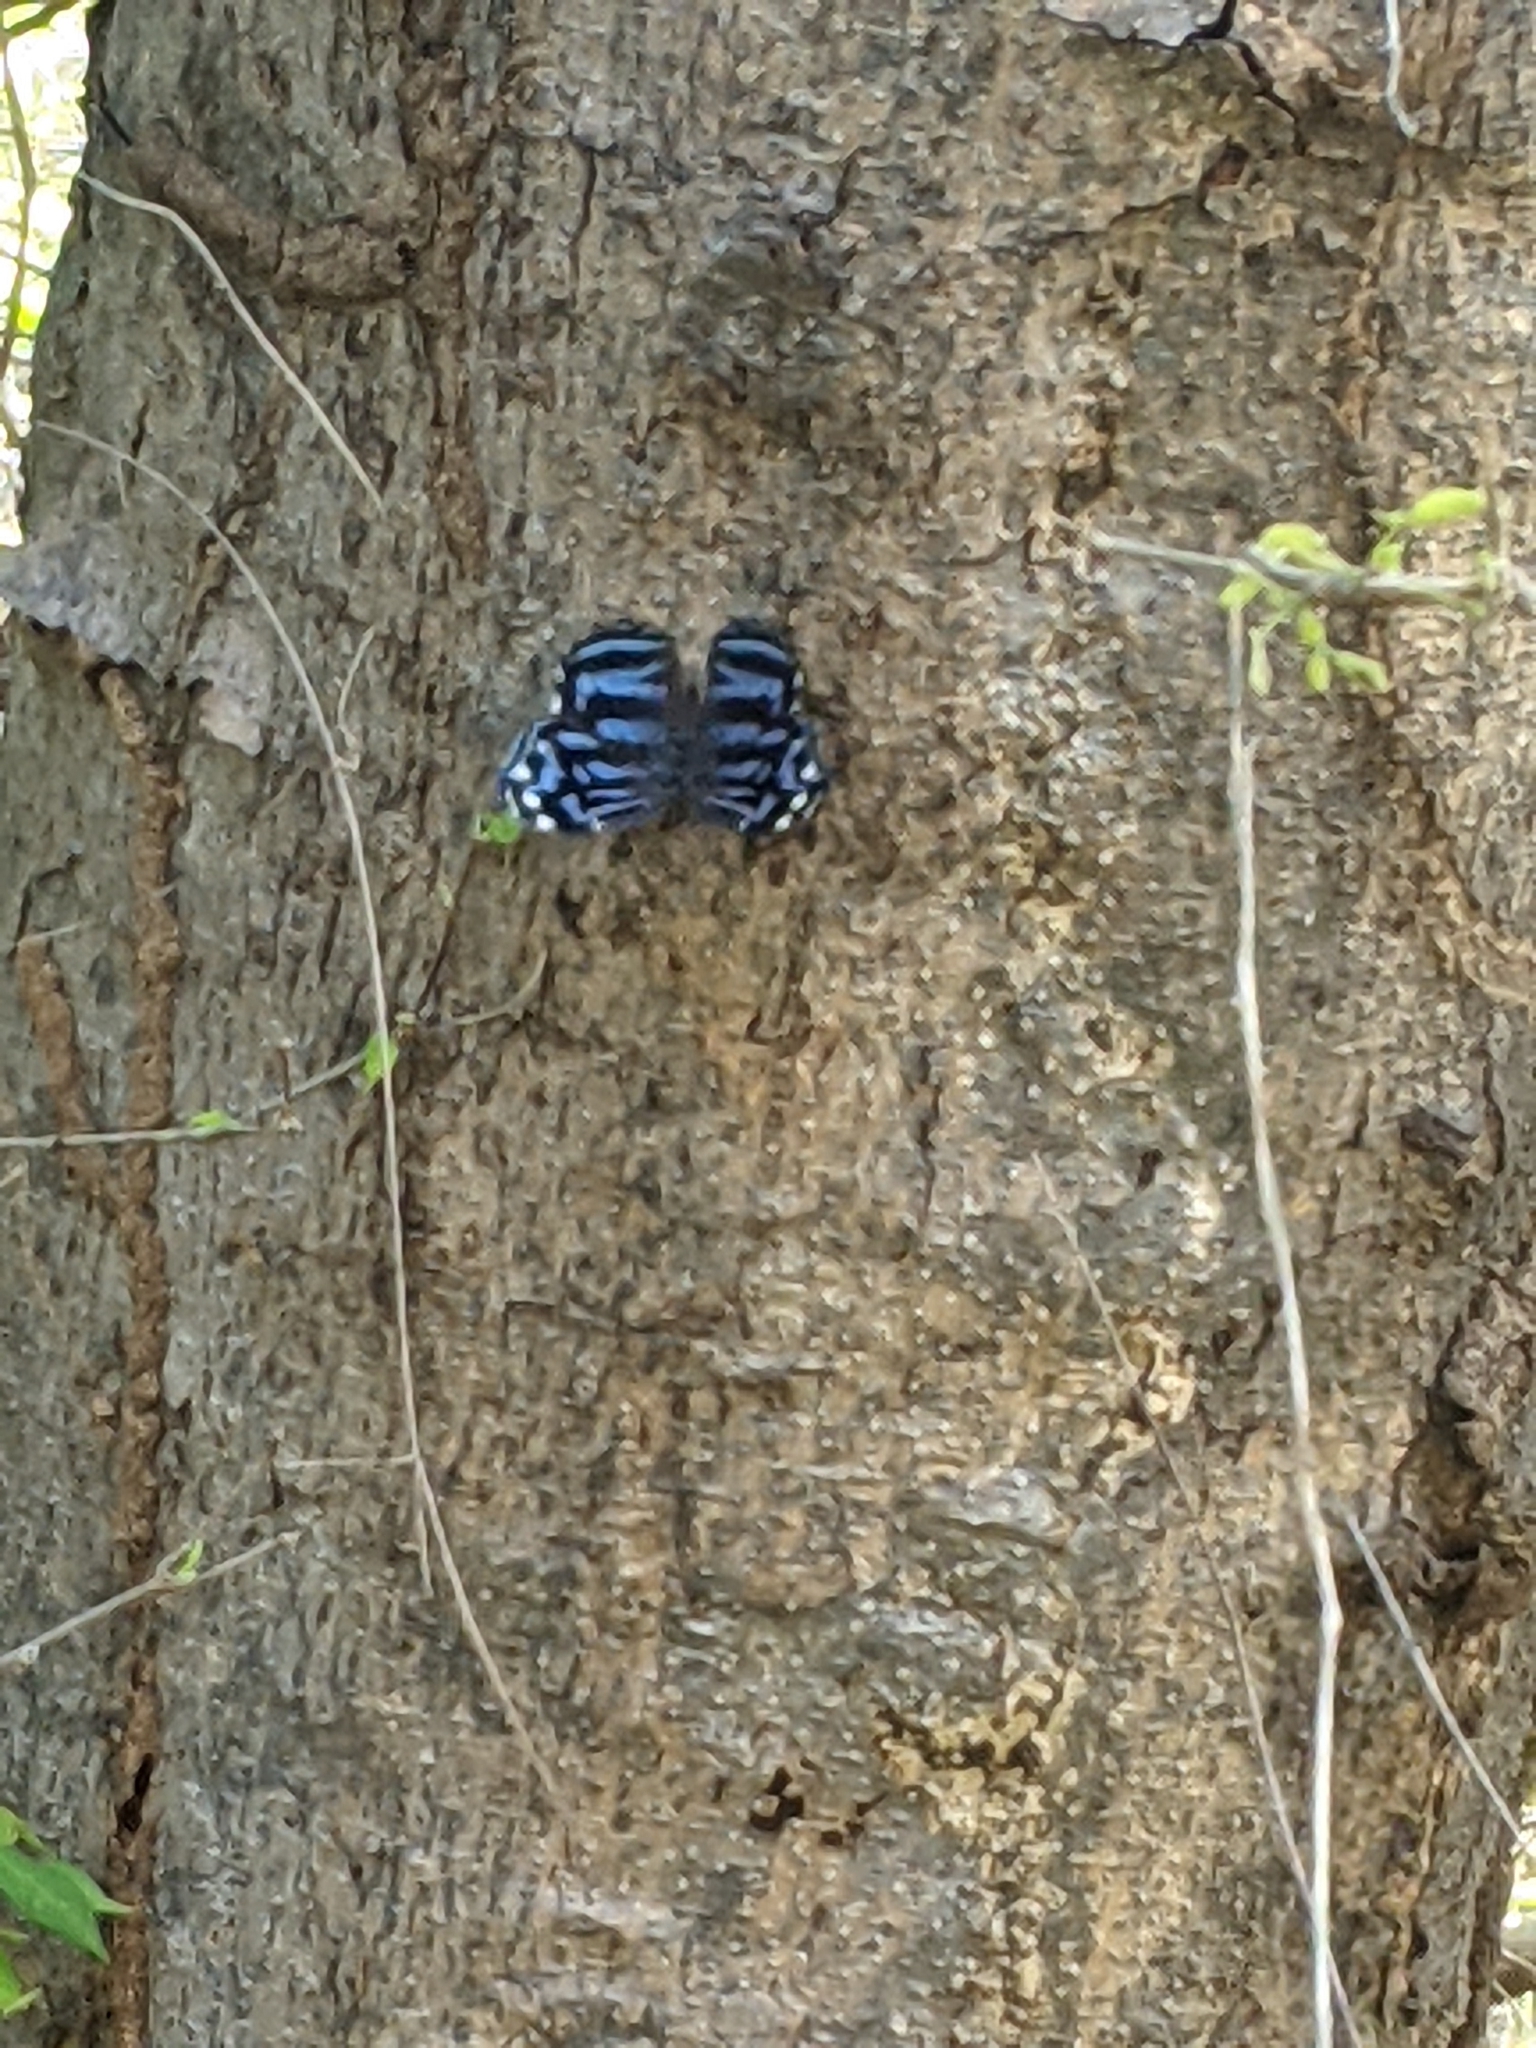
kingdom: Animalia
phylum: Arthropoda
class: Insecta
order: Lepidoptera
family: Nymphalidae
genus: Myscelia
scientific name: Myscelia ethusa
